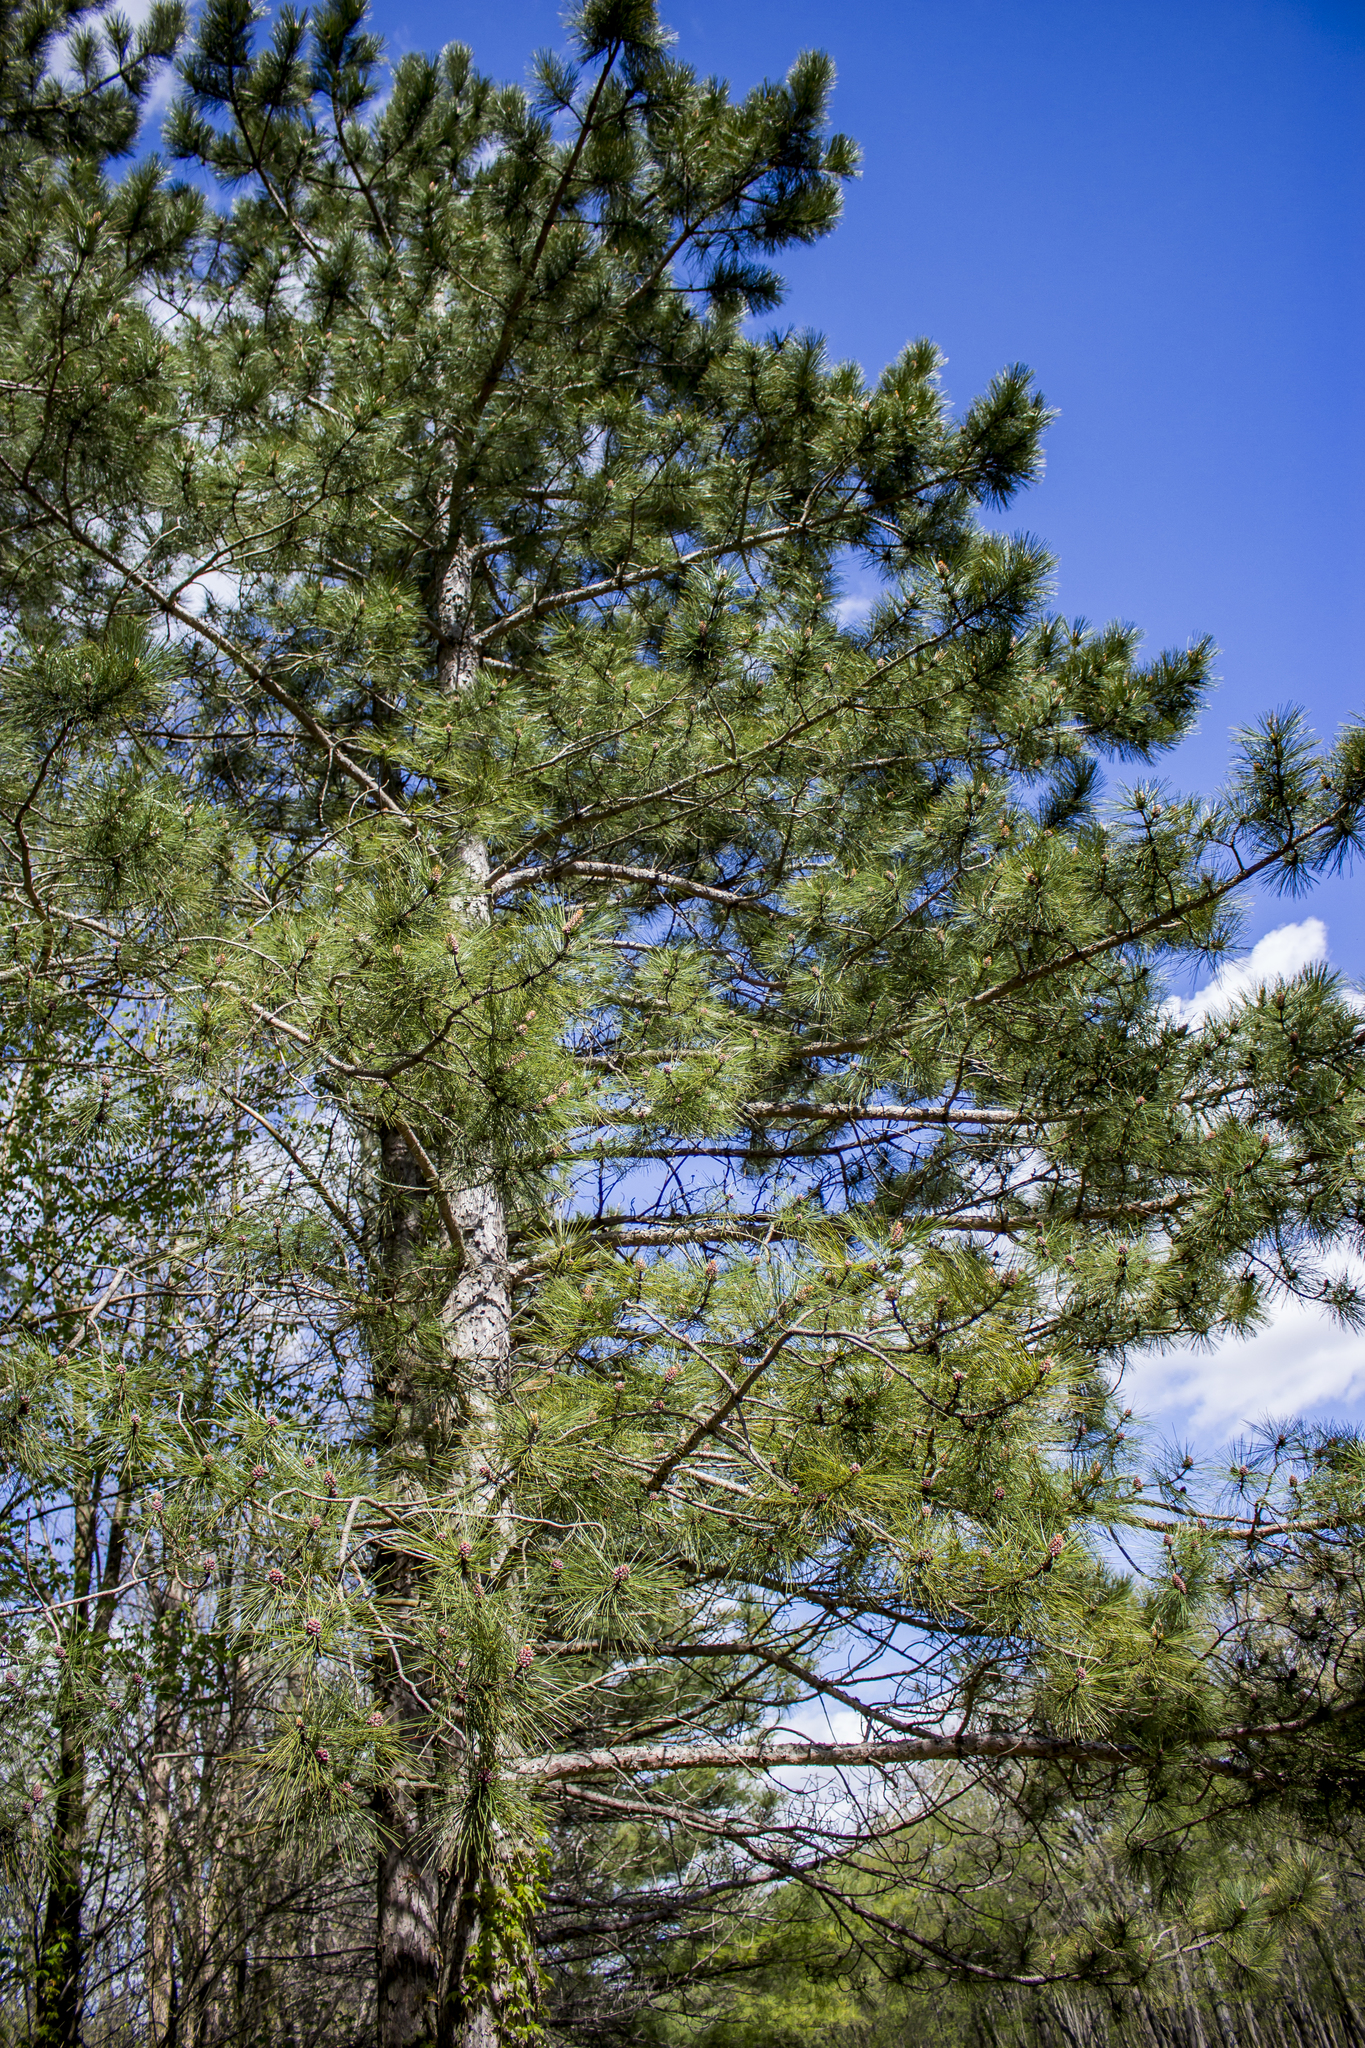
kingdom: Plantae
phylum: Tracheophyta
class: Pinopsida
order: Pinales
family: Pinaceae
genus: Pinus
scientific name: Pinus resinosa
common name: Norway pine
